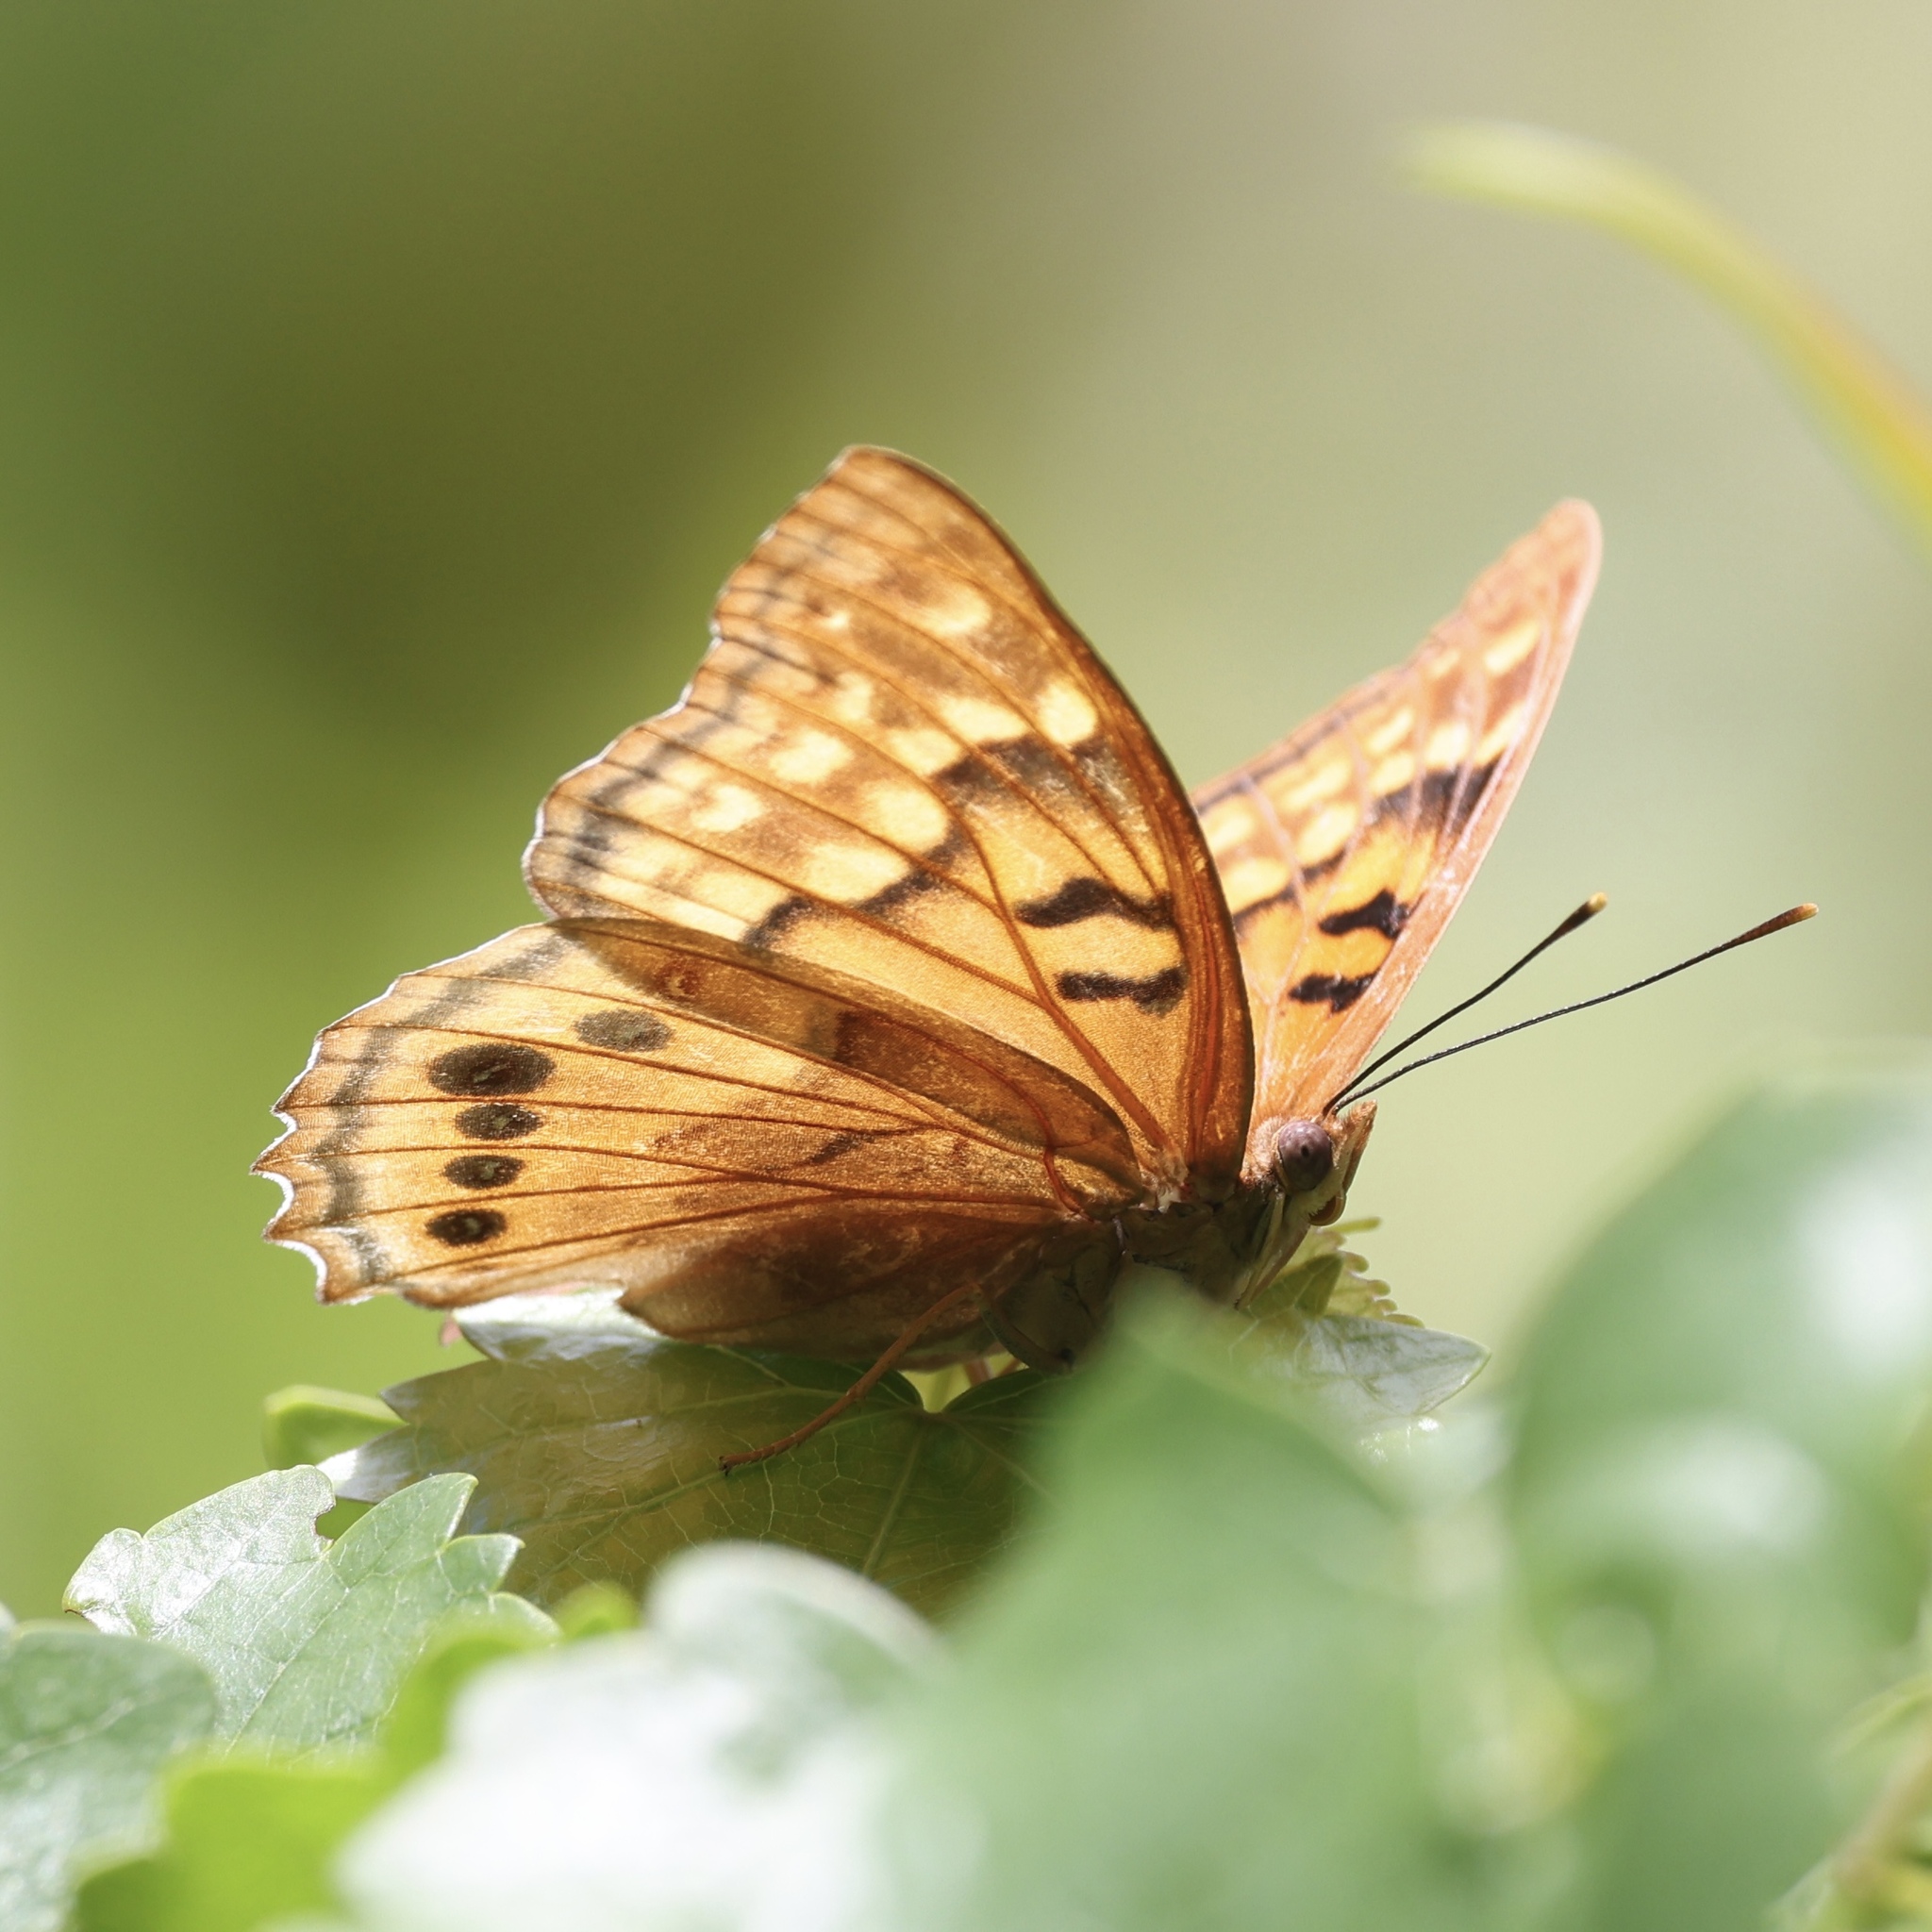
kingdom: Animalia
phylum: Arthropoda
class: Insecta
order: Lepidoptera
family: Nymphalidae
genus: Asterocampa
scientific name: Asterocampa clyton
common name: Tawny emperor
